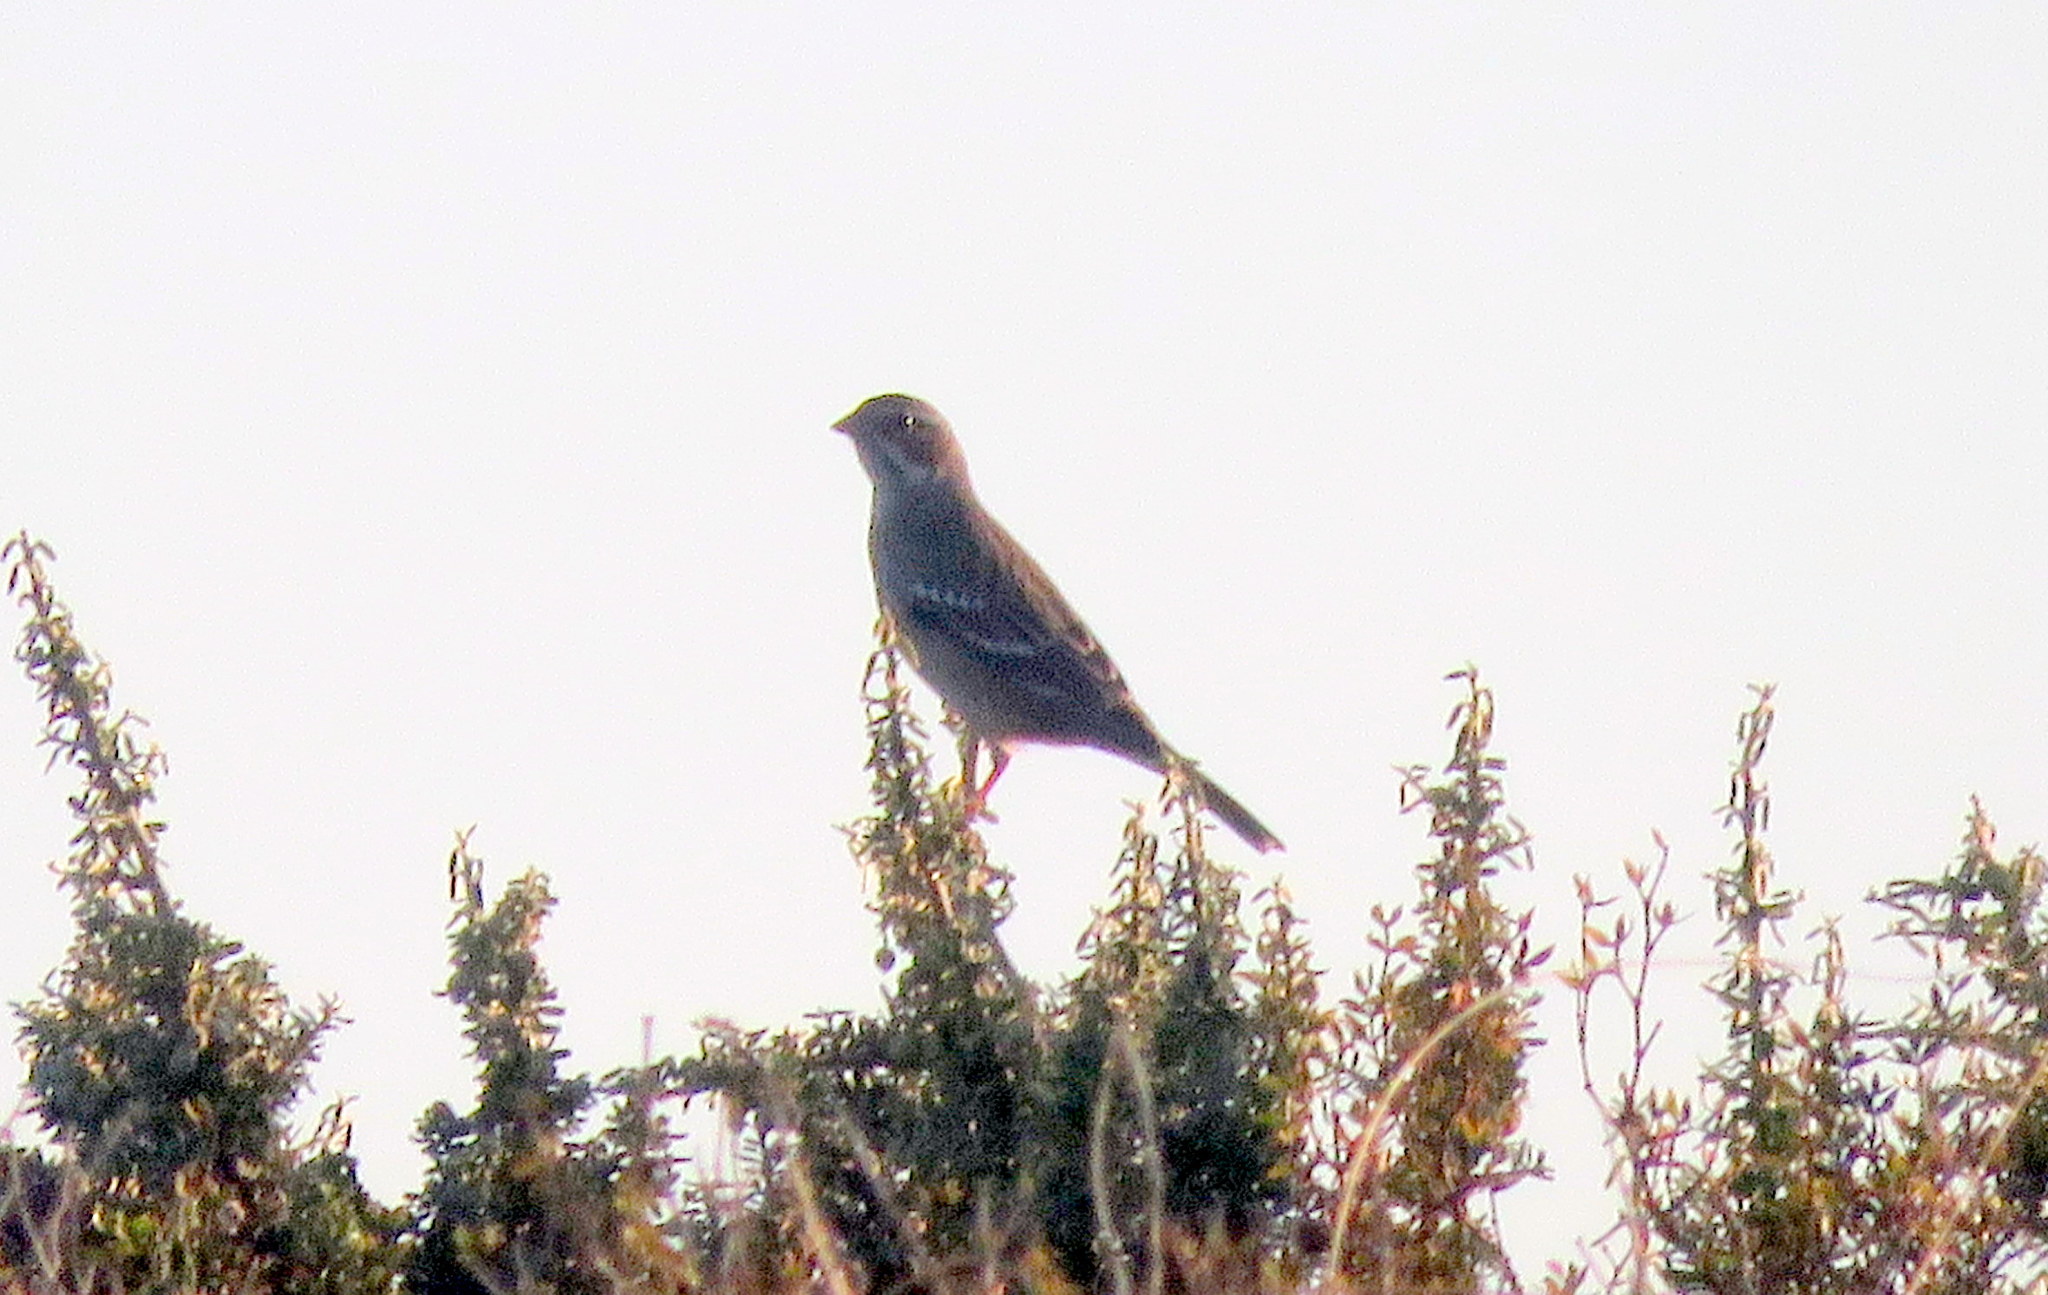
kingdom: Animalia
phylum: Chordata
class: Aves
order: Passeriformes
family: Thraupidae
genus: Rhopospina
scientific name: Rhopospina fruticeti
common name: Mourning sierra finch
